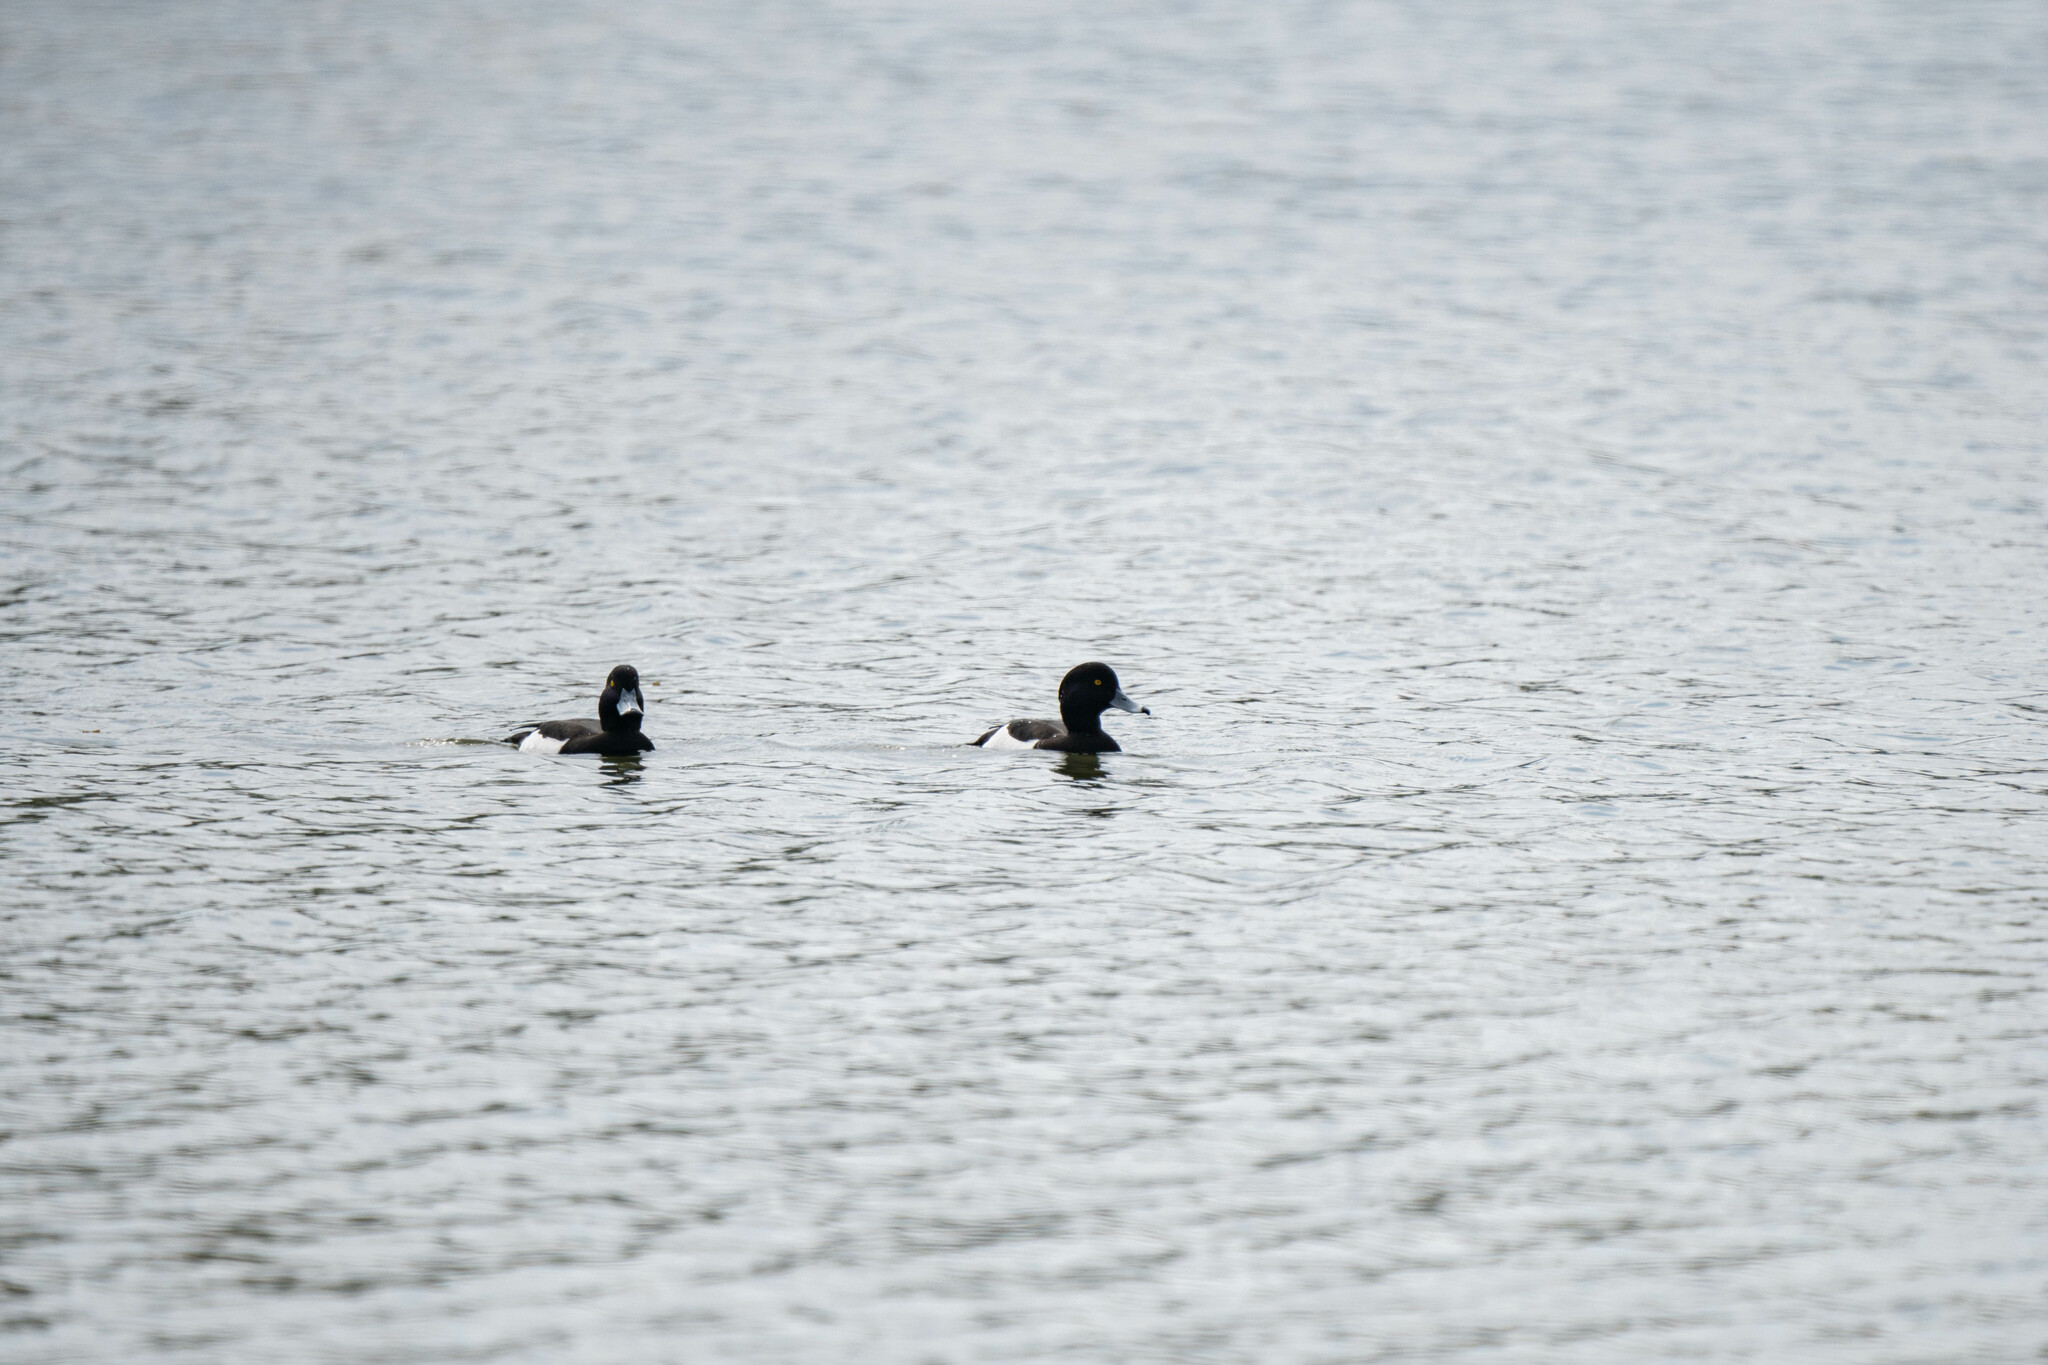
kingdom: Animalia
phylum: Chordata
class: Aves
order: Anseriformes
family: Anatidae
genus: Aythya
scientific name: Aythya fuligula
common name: Tufted duck
